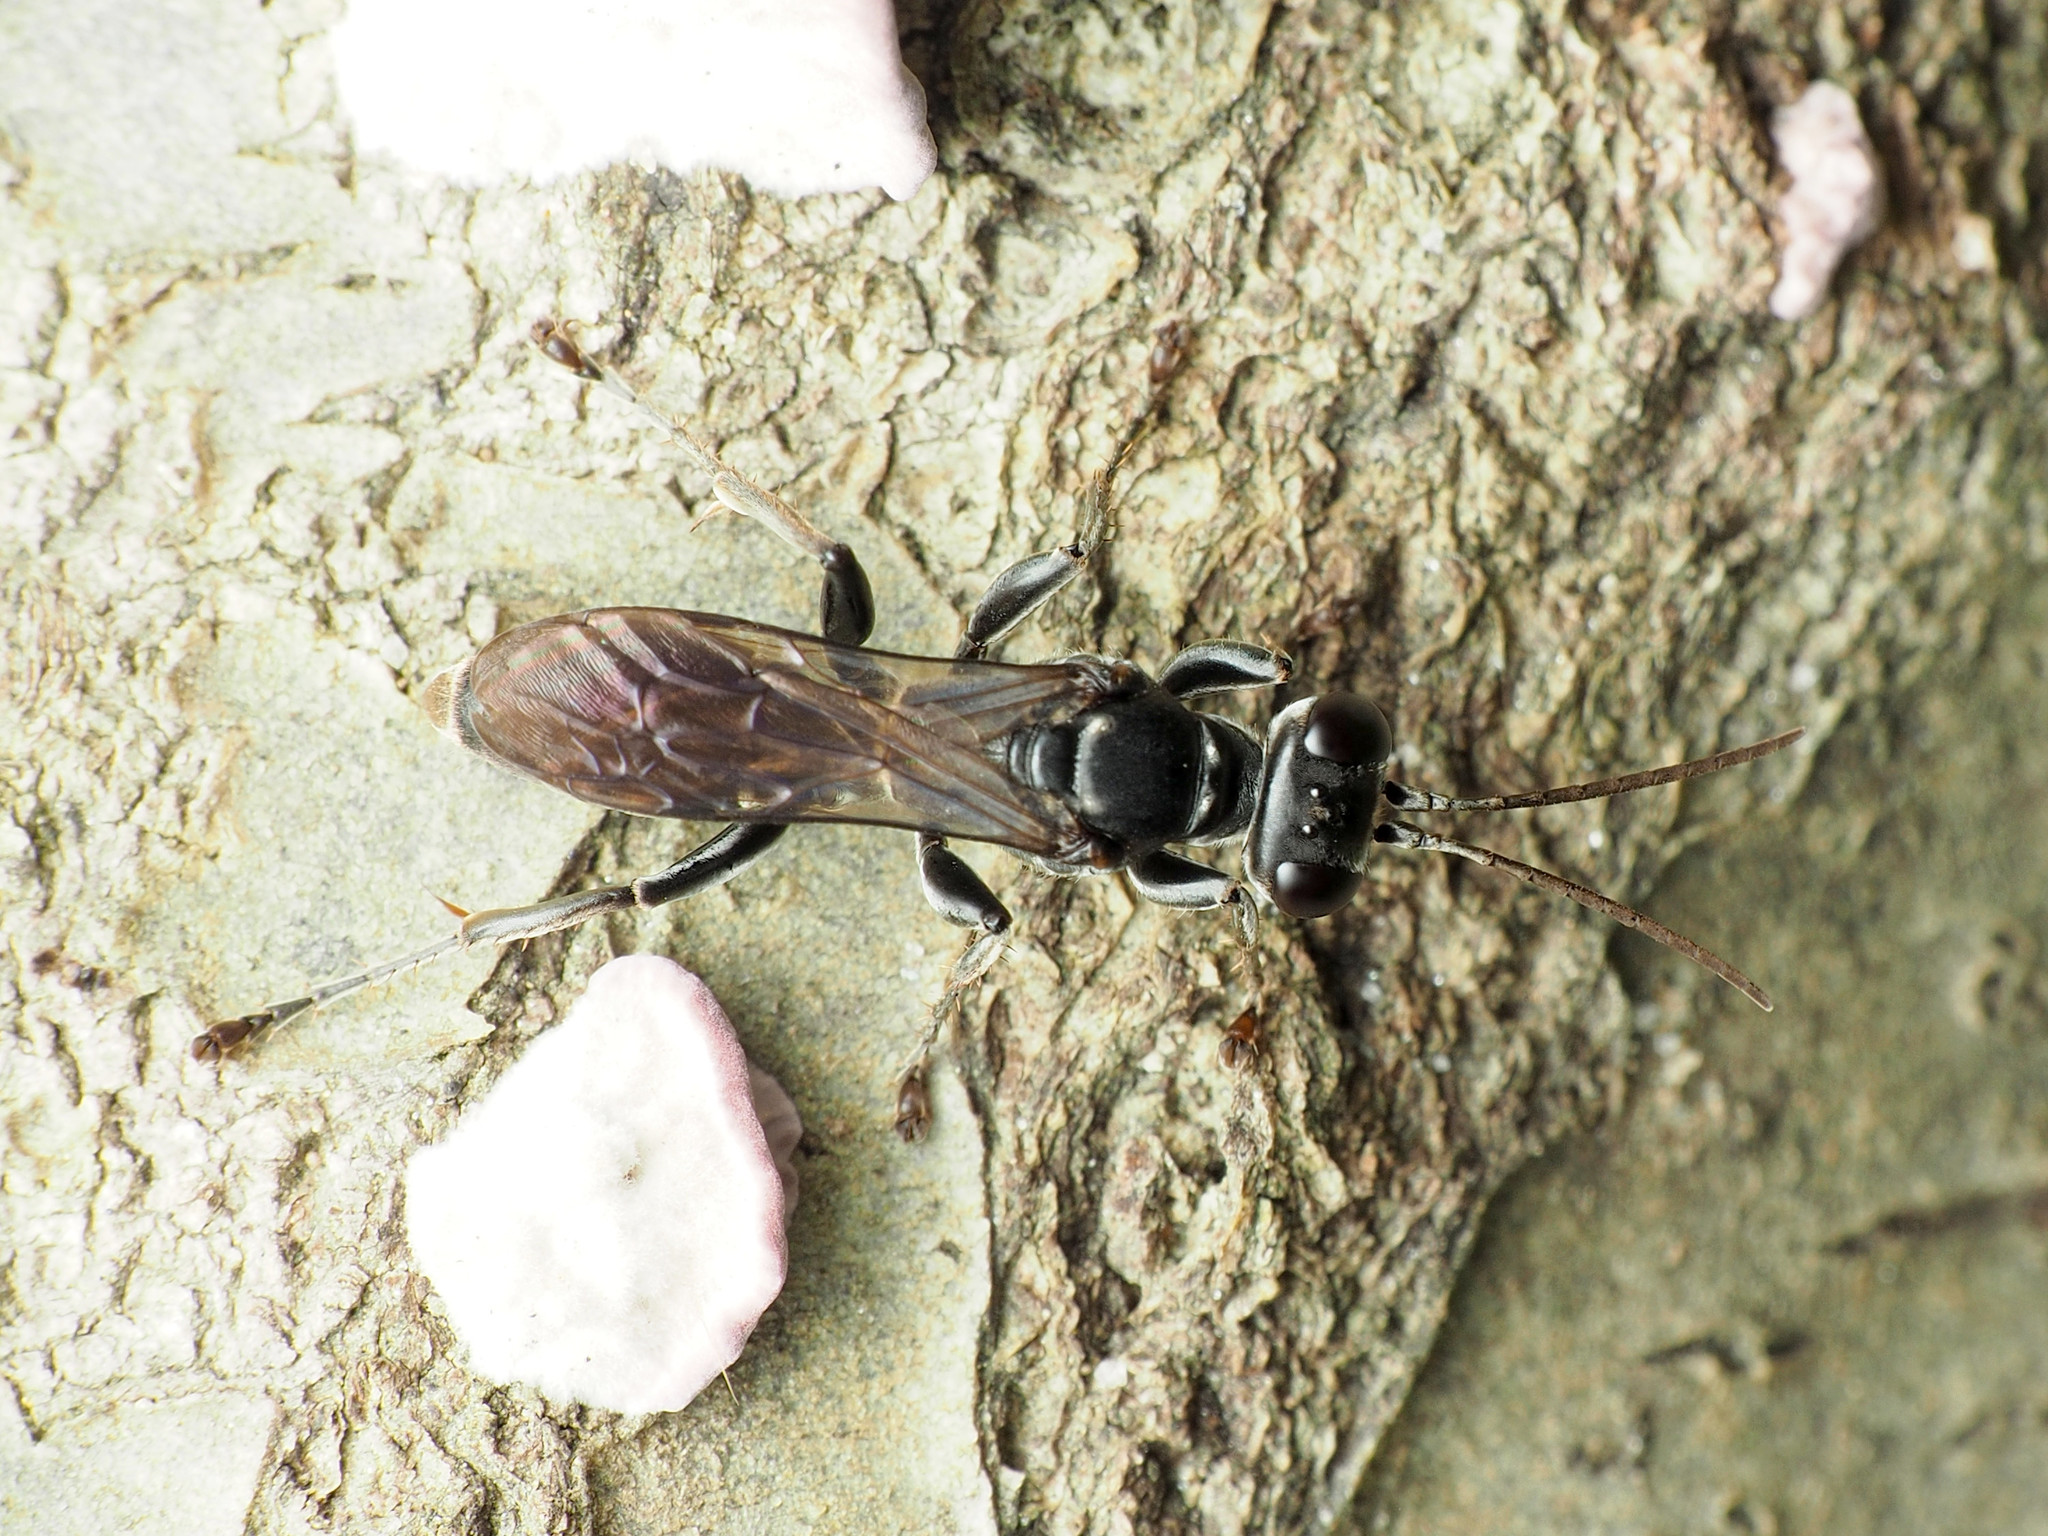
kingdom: Animalia
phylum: Arthropoda
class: Insecta
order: Hymenoptera
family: Crabronidae
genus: Lyroda
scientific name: Lyroda subita
